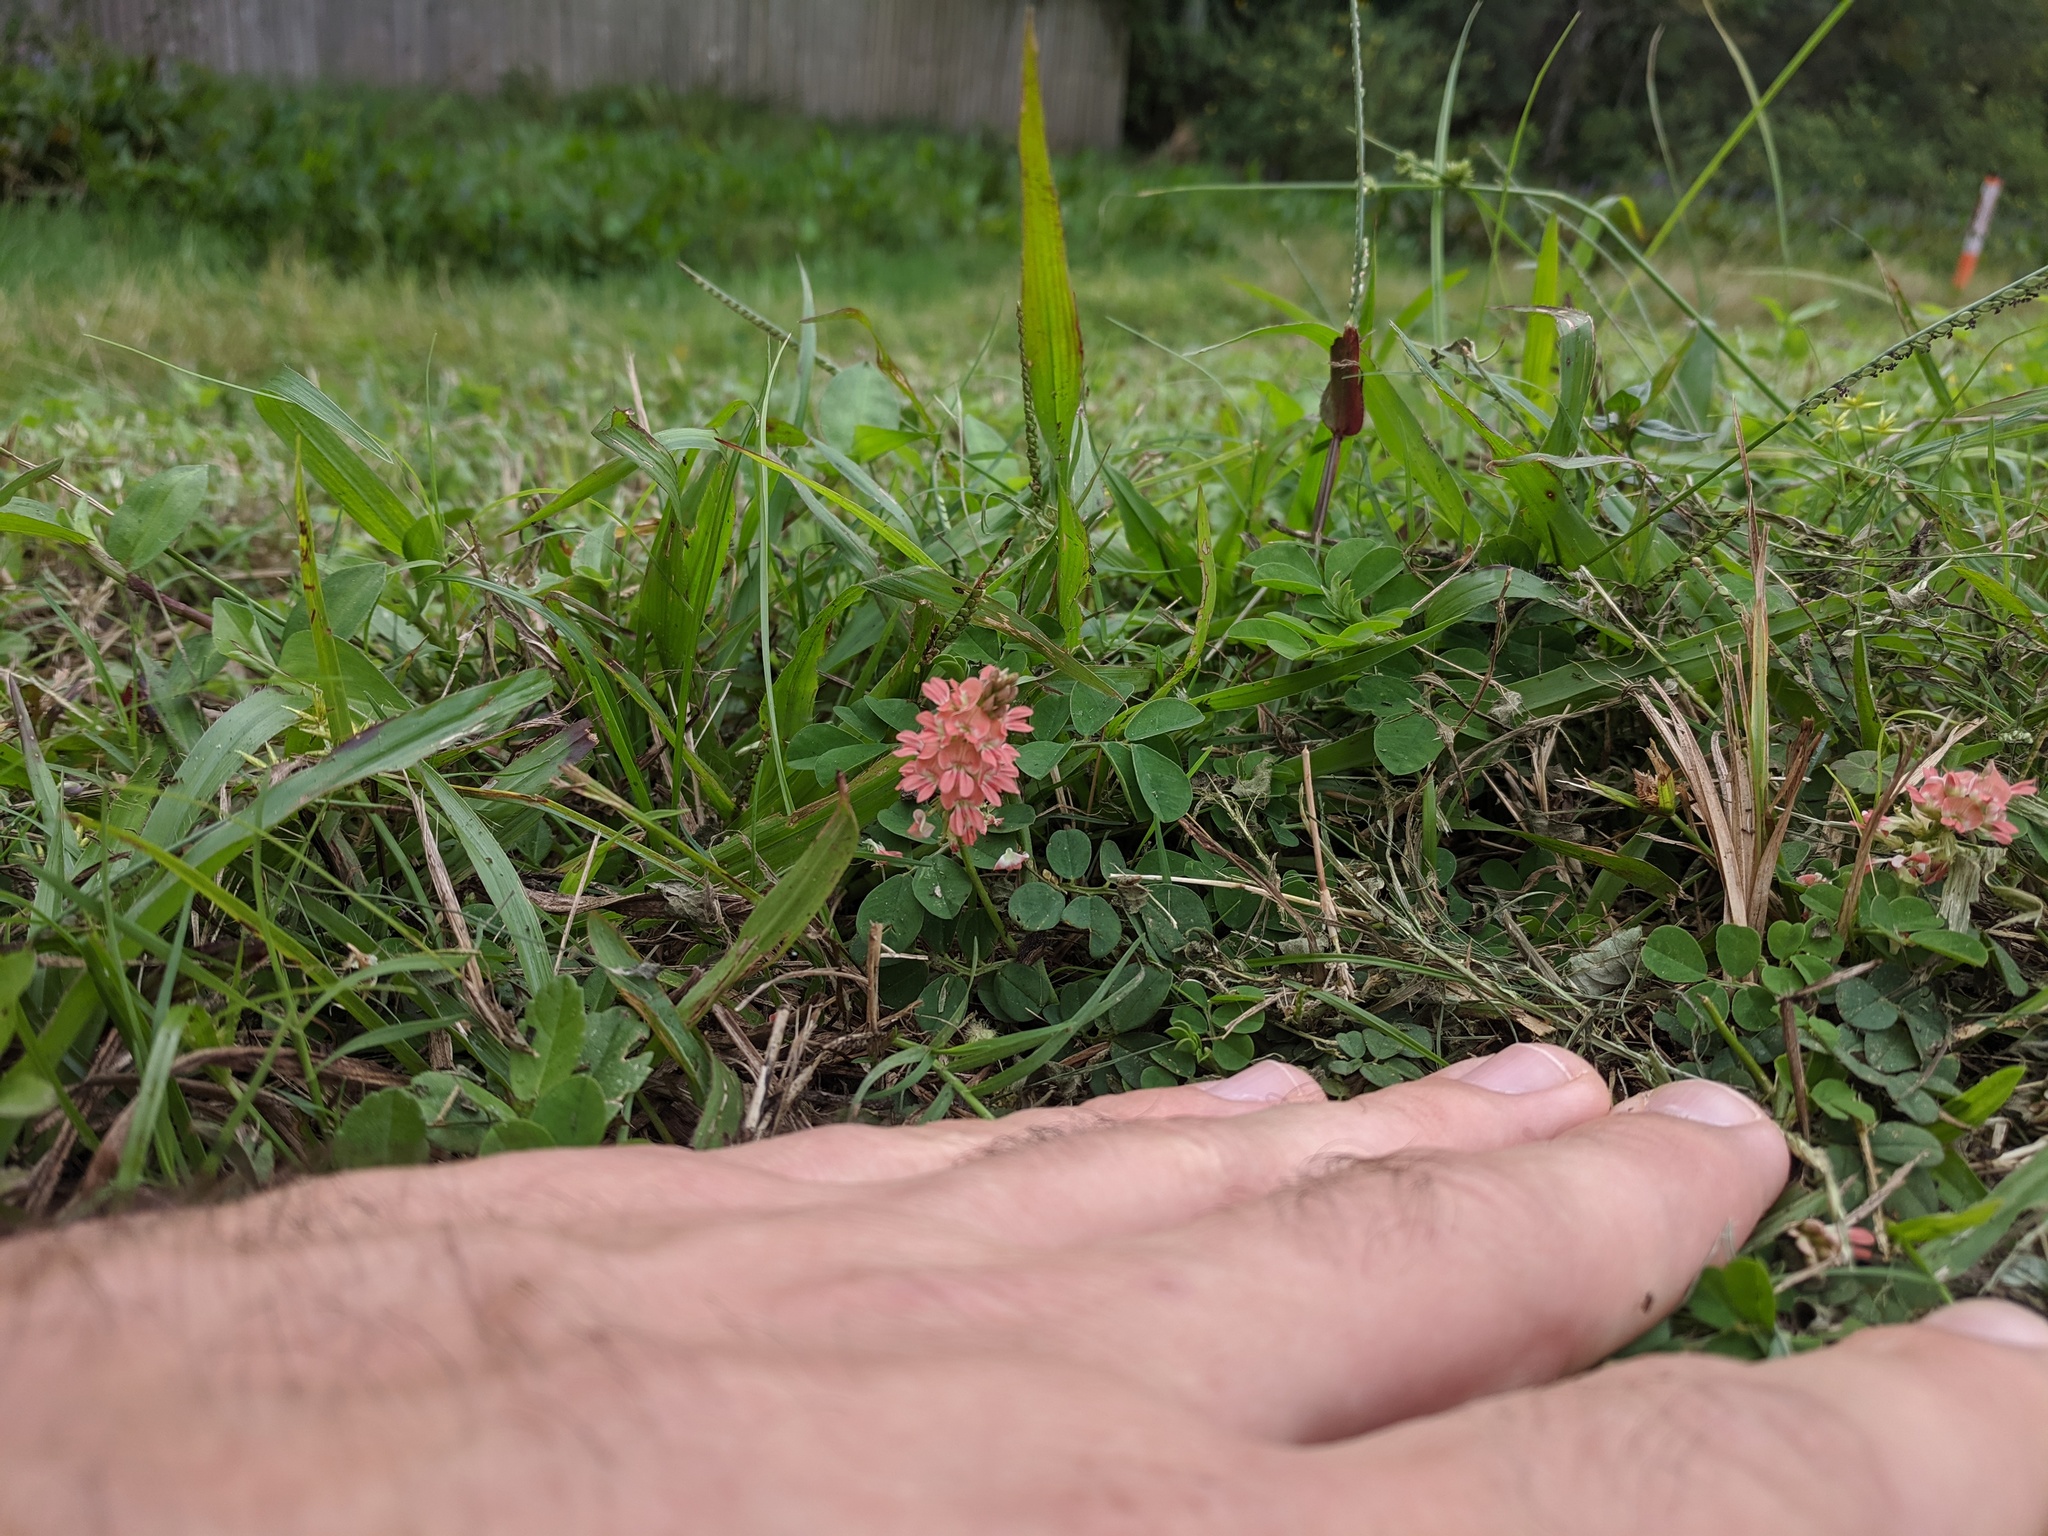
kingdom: Plantae
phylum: Tracheophyta
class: Magnoliopsida
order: Fabales
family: Fabaceae
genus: Indigofera
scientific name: Indigofera spicata
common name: Creeping indigo
